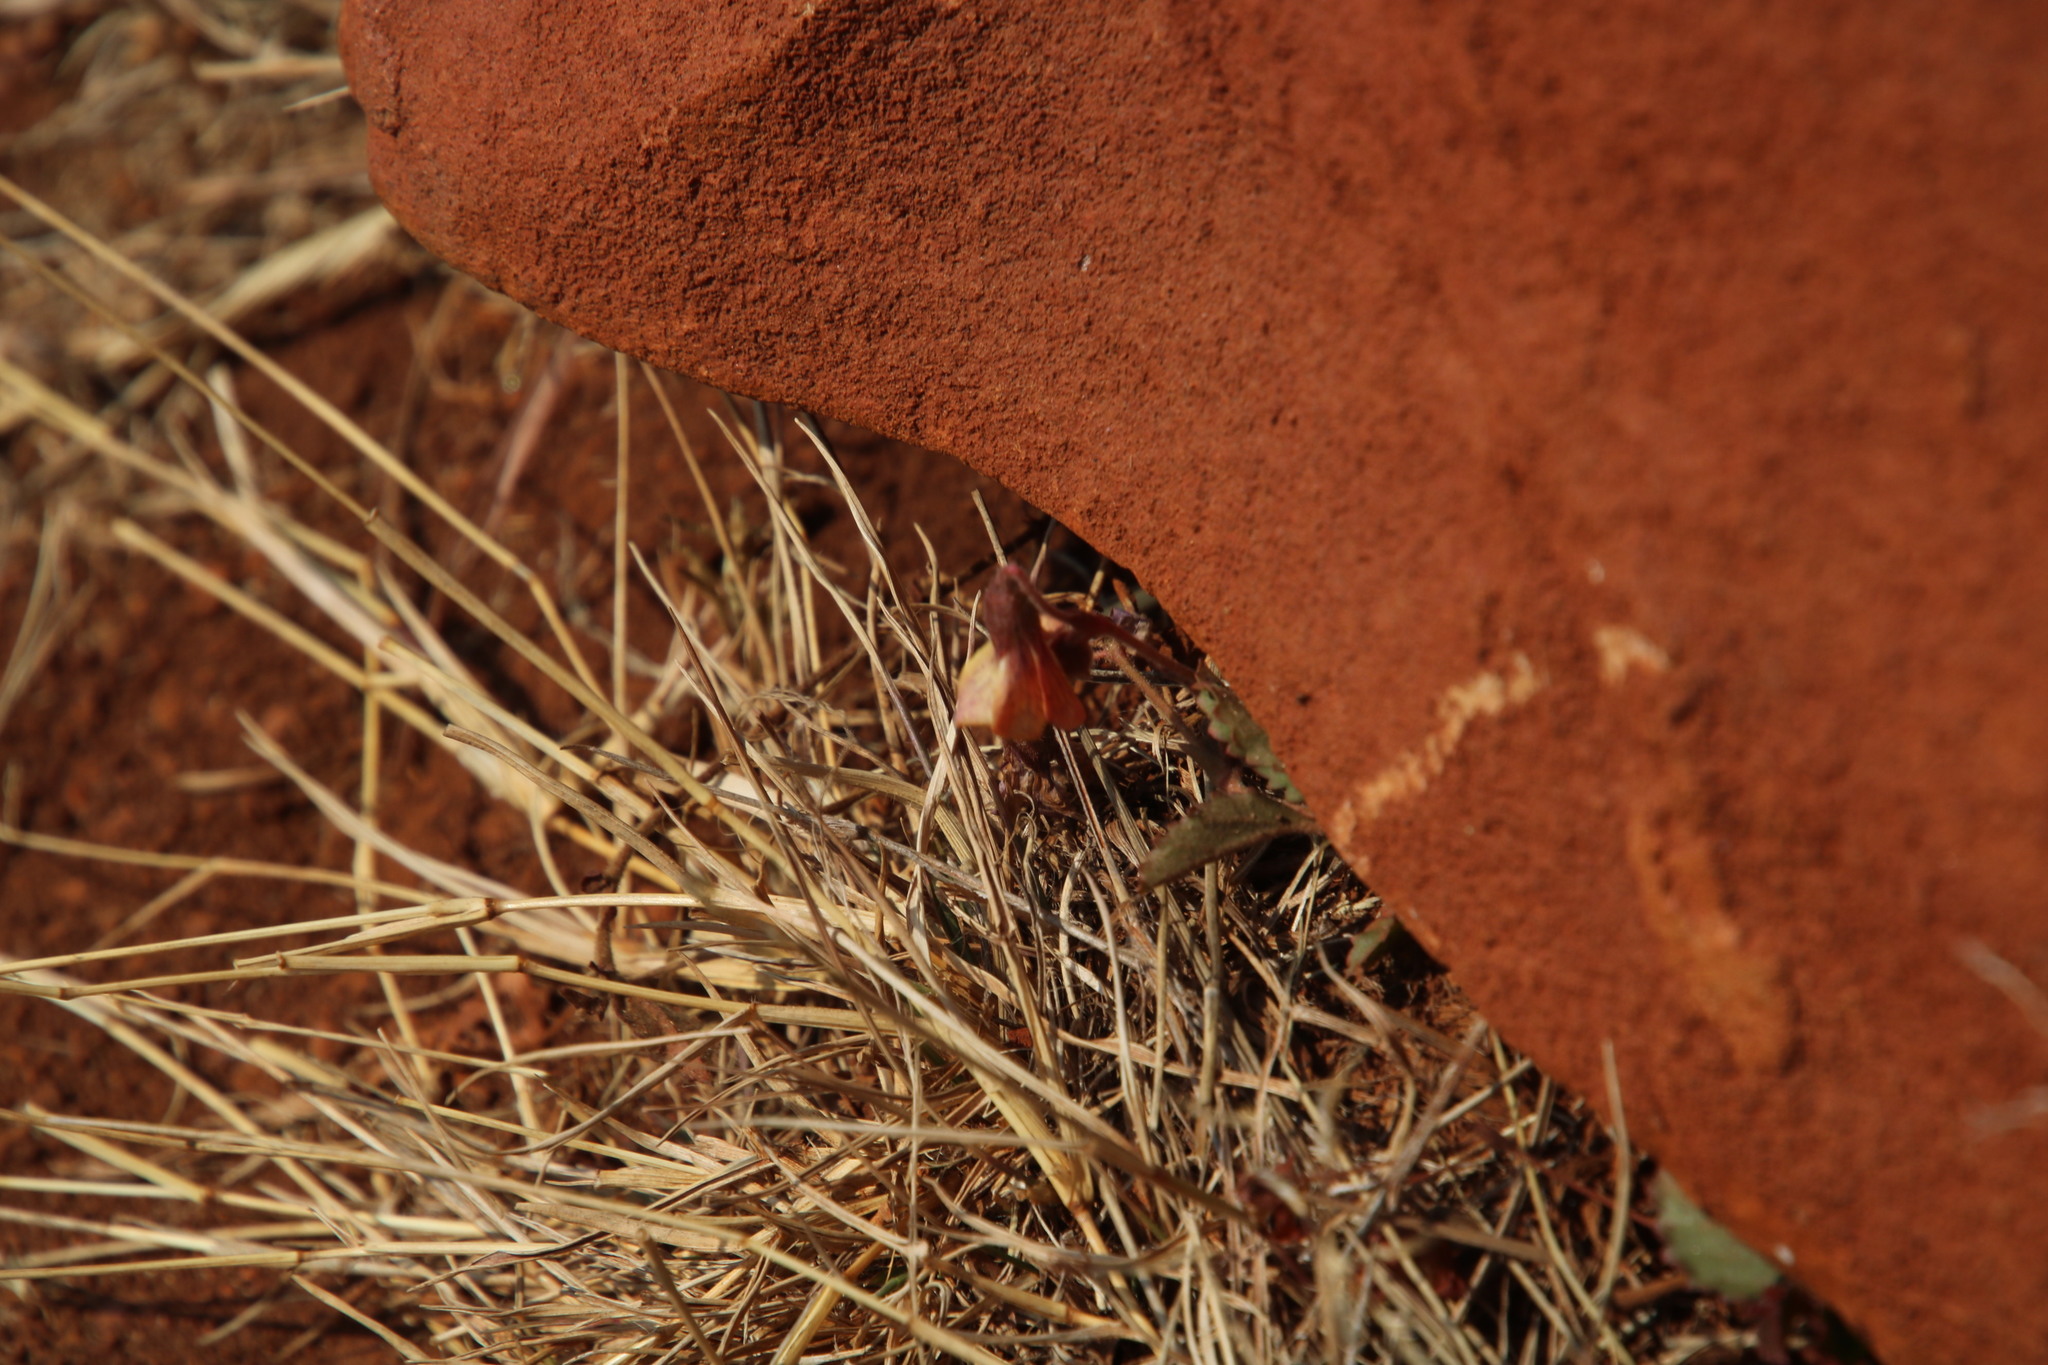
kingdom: Plantae
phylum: Tracheophyta
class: Magnoliopsida
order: Malvales
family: Malvaceae
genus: Hermannia
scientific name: Hermannia depressa
